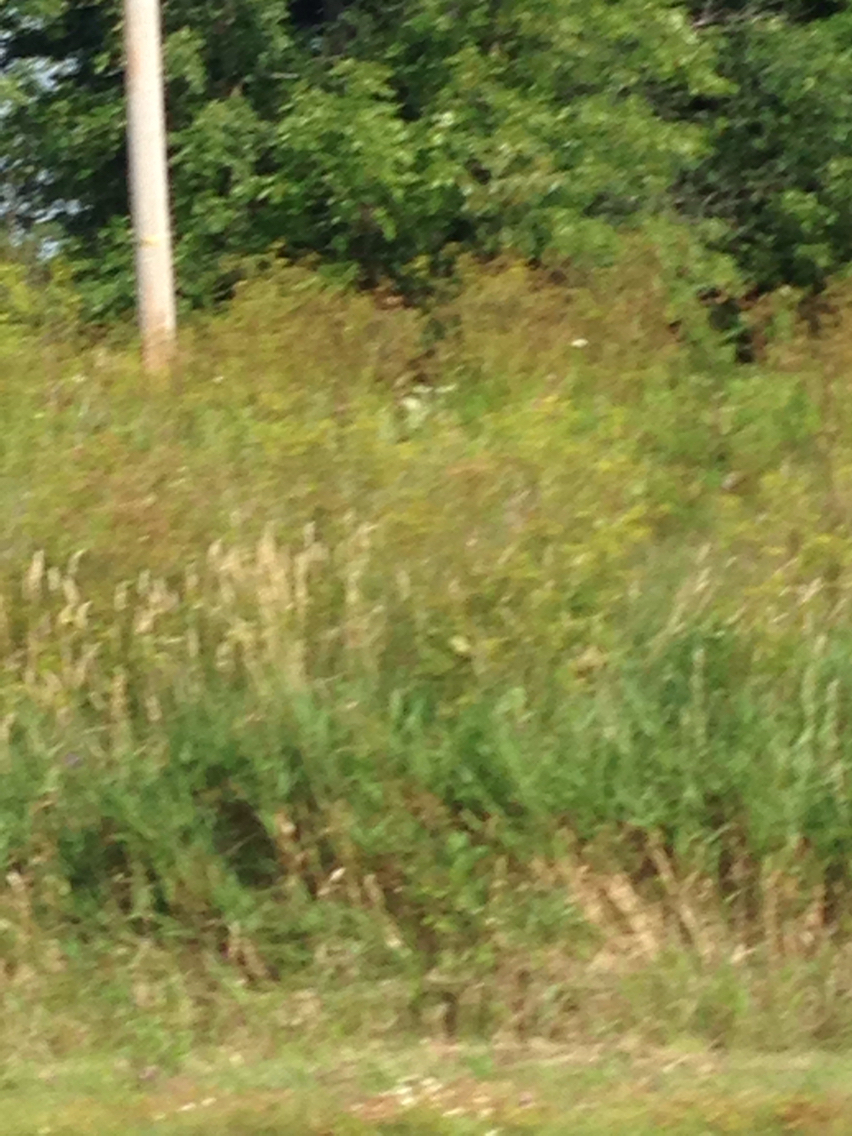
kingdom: Plantae
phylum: Tracheophyta
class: Magnoliopsida
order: Apiales
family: Apiaceae
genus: Pastinaca
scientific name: Pastinaca sativa
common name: Wild parsnip
